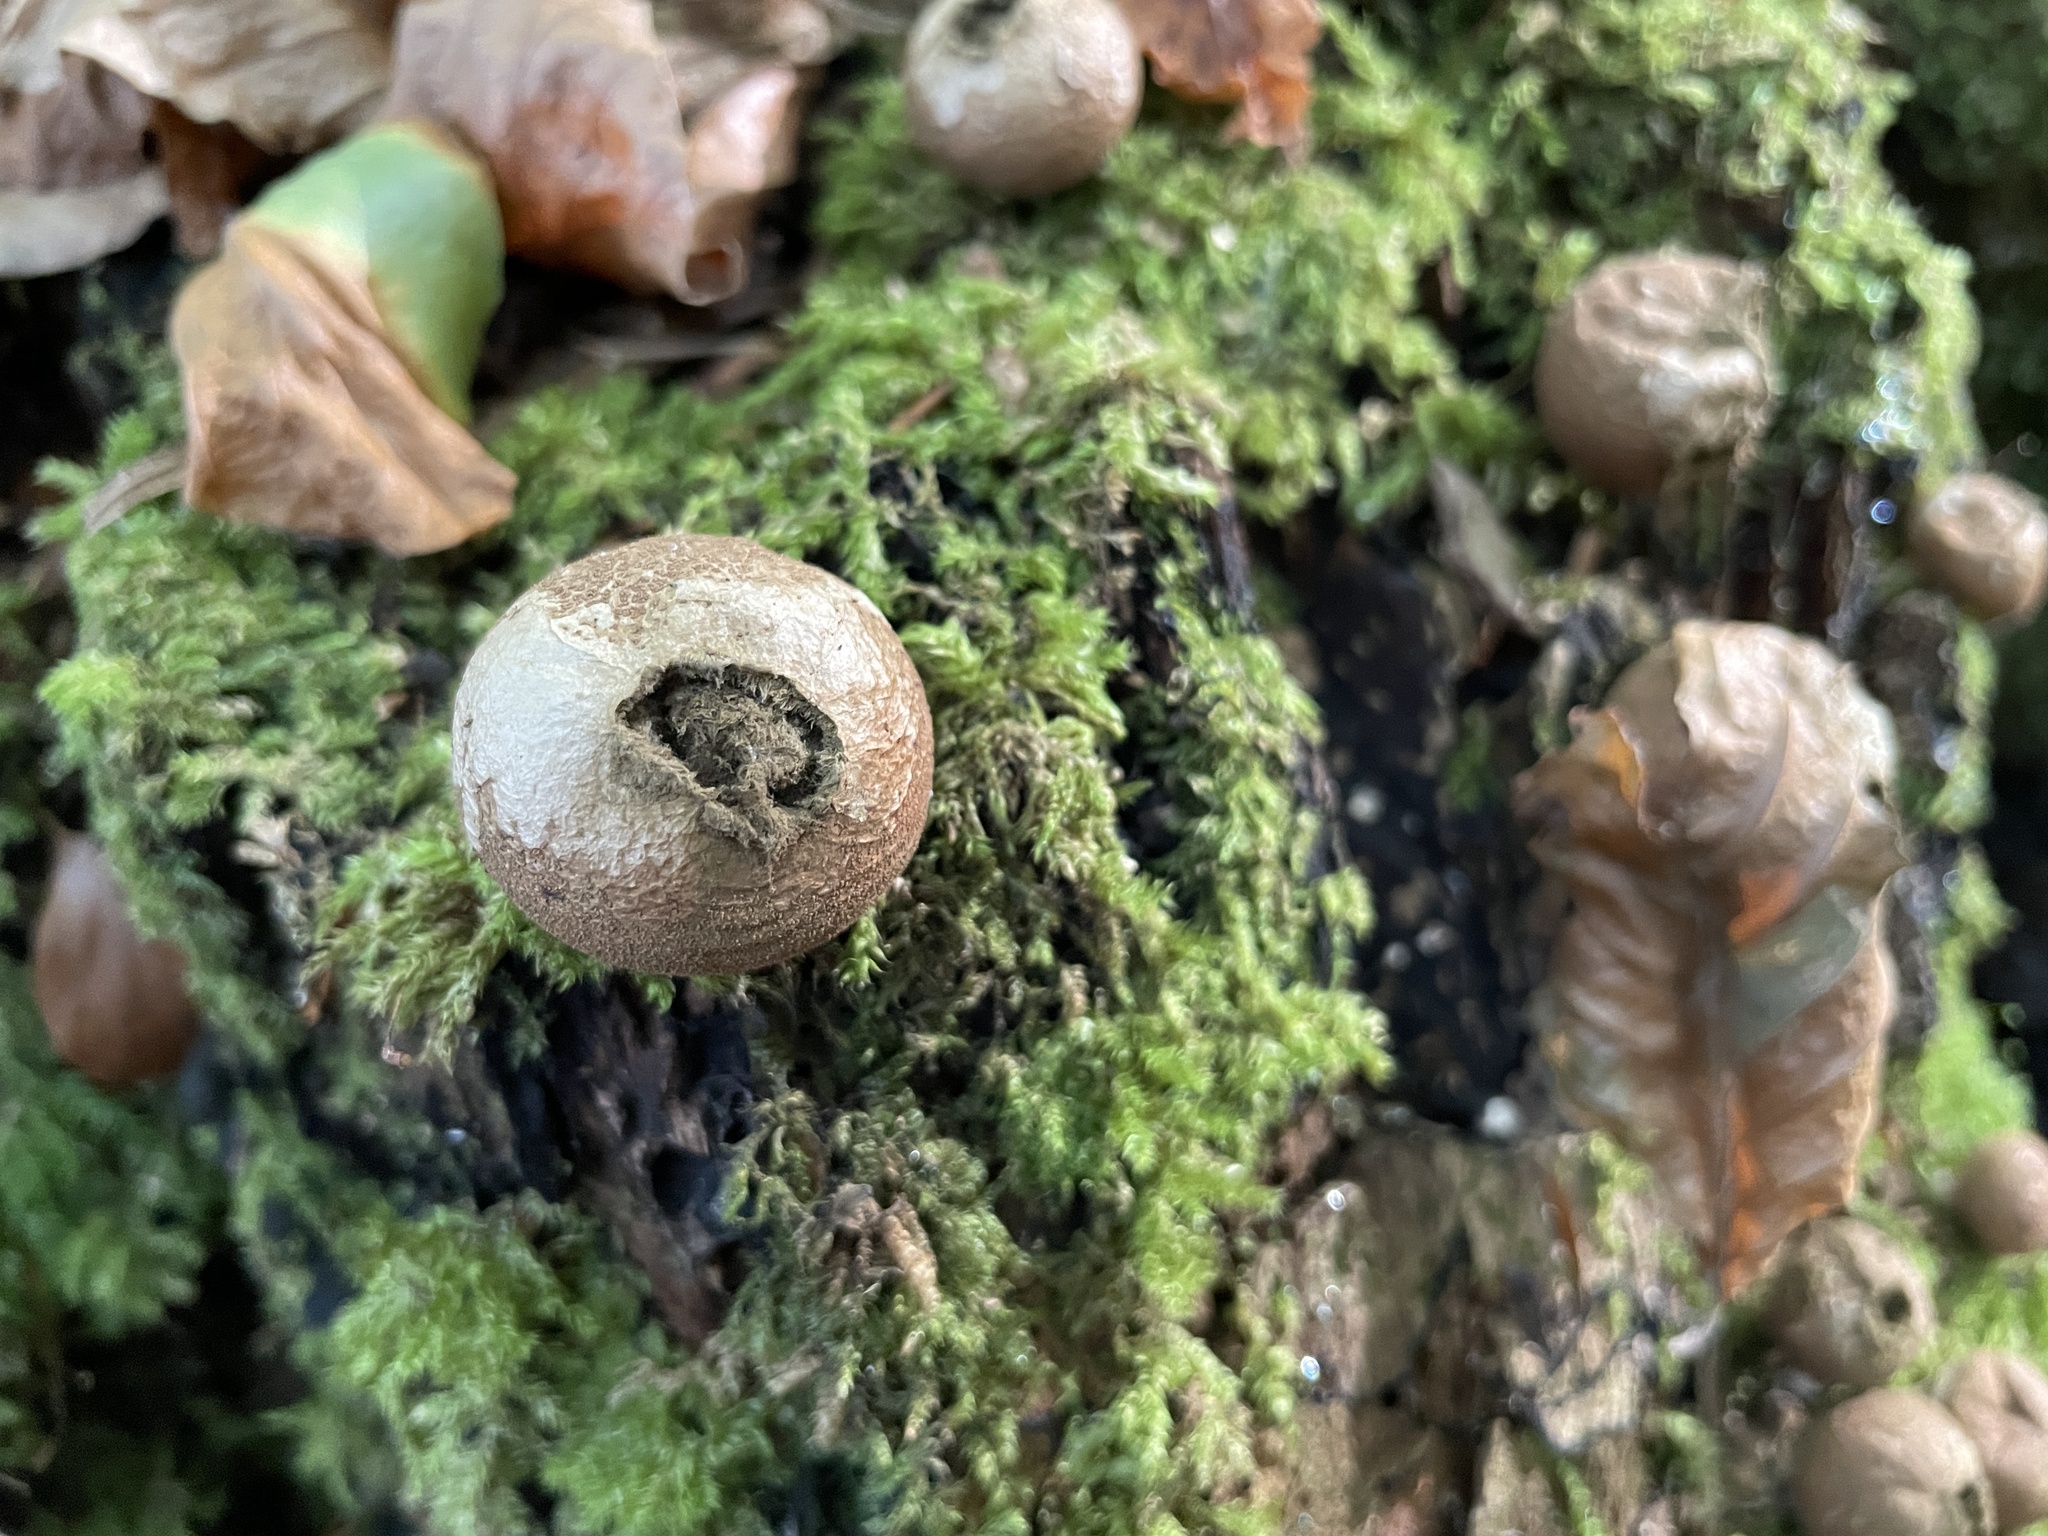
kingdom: Fungi
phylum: Basidiomycota
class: Agaricomycetes
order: Agaricales
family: Lycoperdaceae
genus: Apioperdon
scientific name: Apioperdon pyriforme
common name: Pear-shaped puffball
